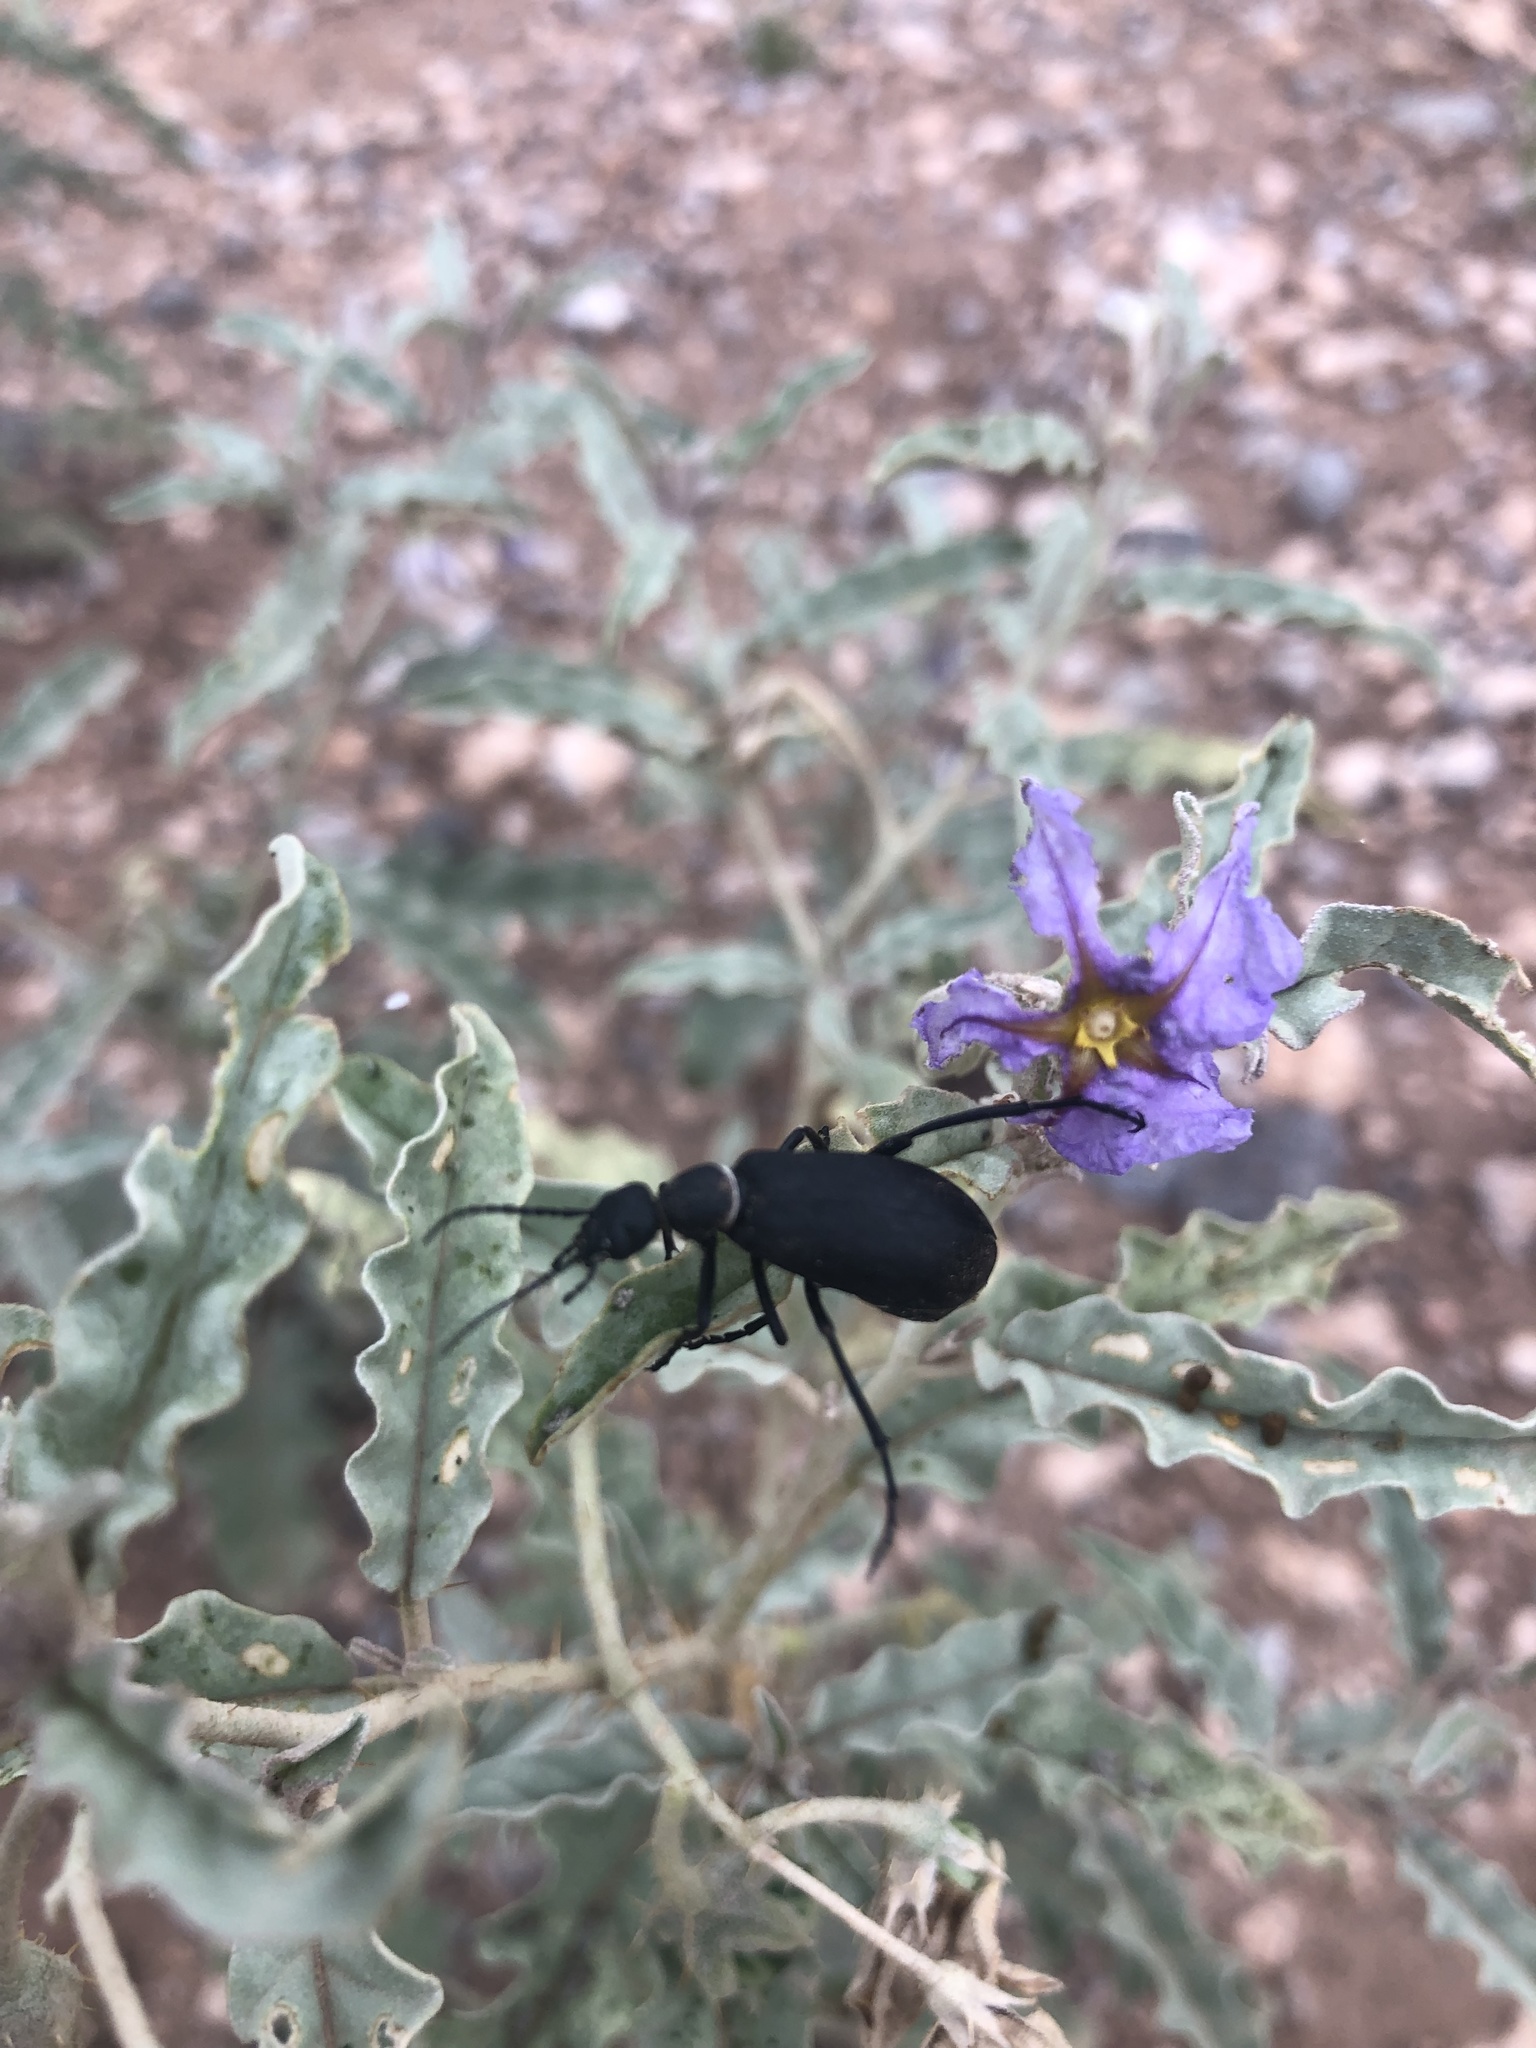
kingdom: Animalia
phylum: Arthropoda
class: Insecta
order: Coleoptera
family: Meloidae
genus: Epicauta
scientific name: Epicauta segmenta
